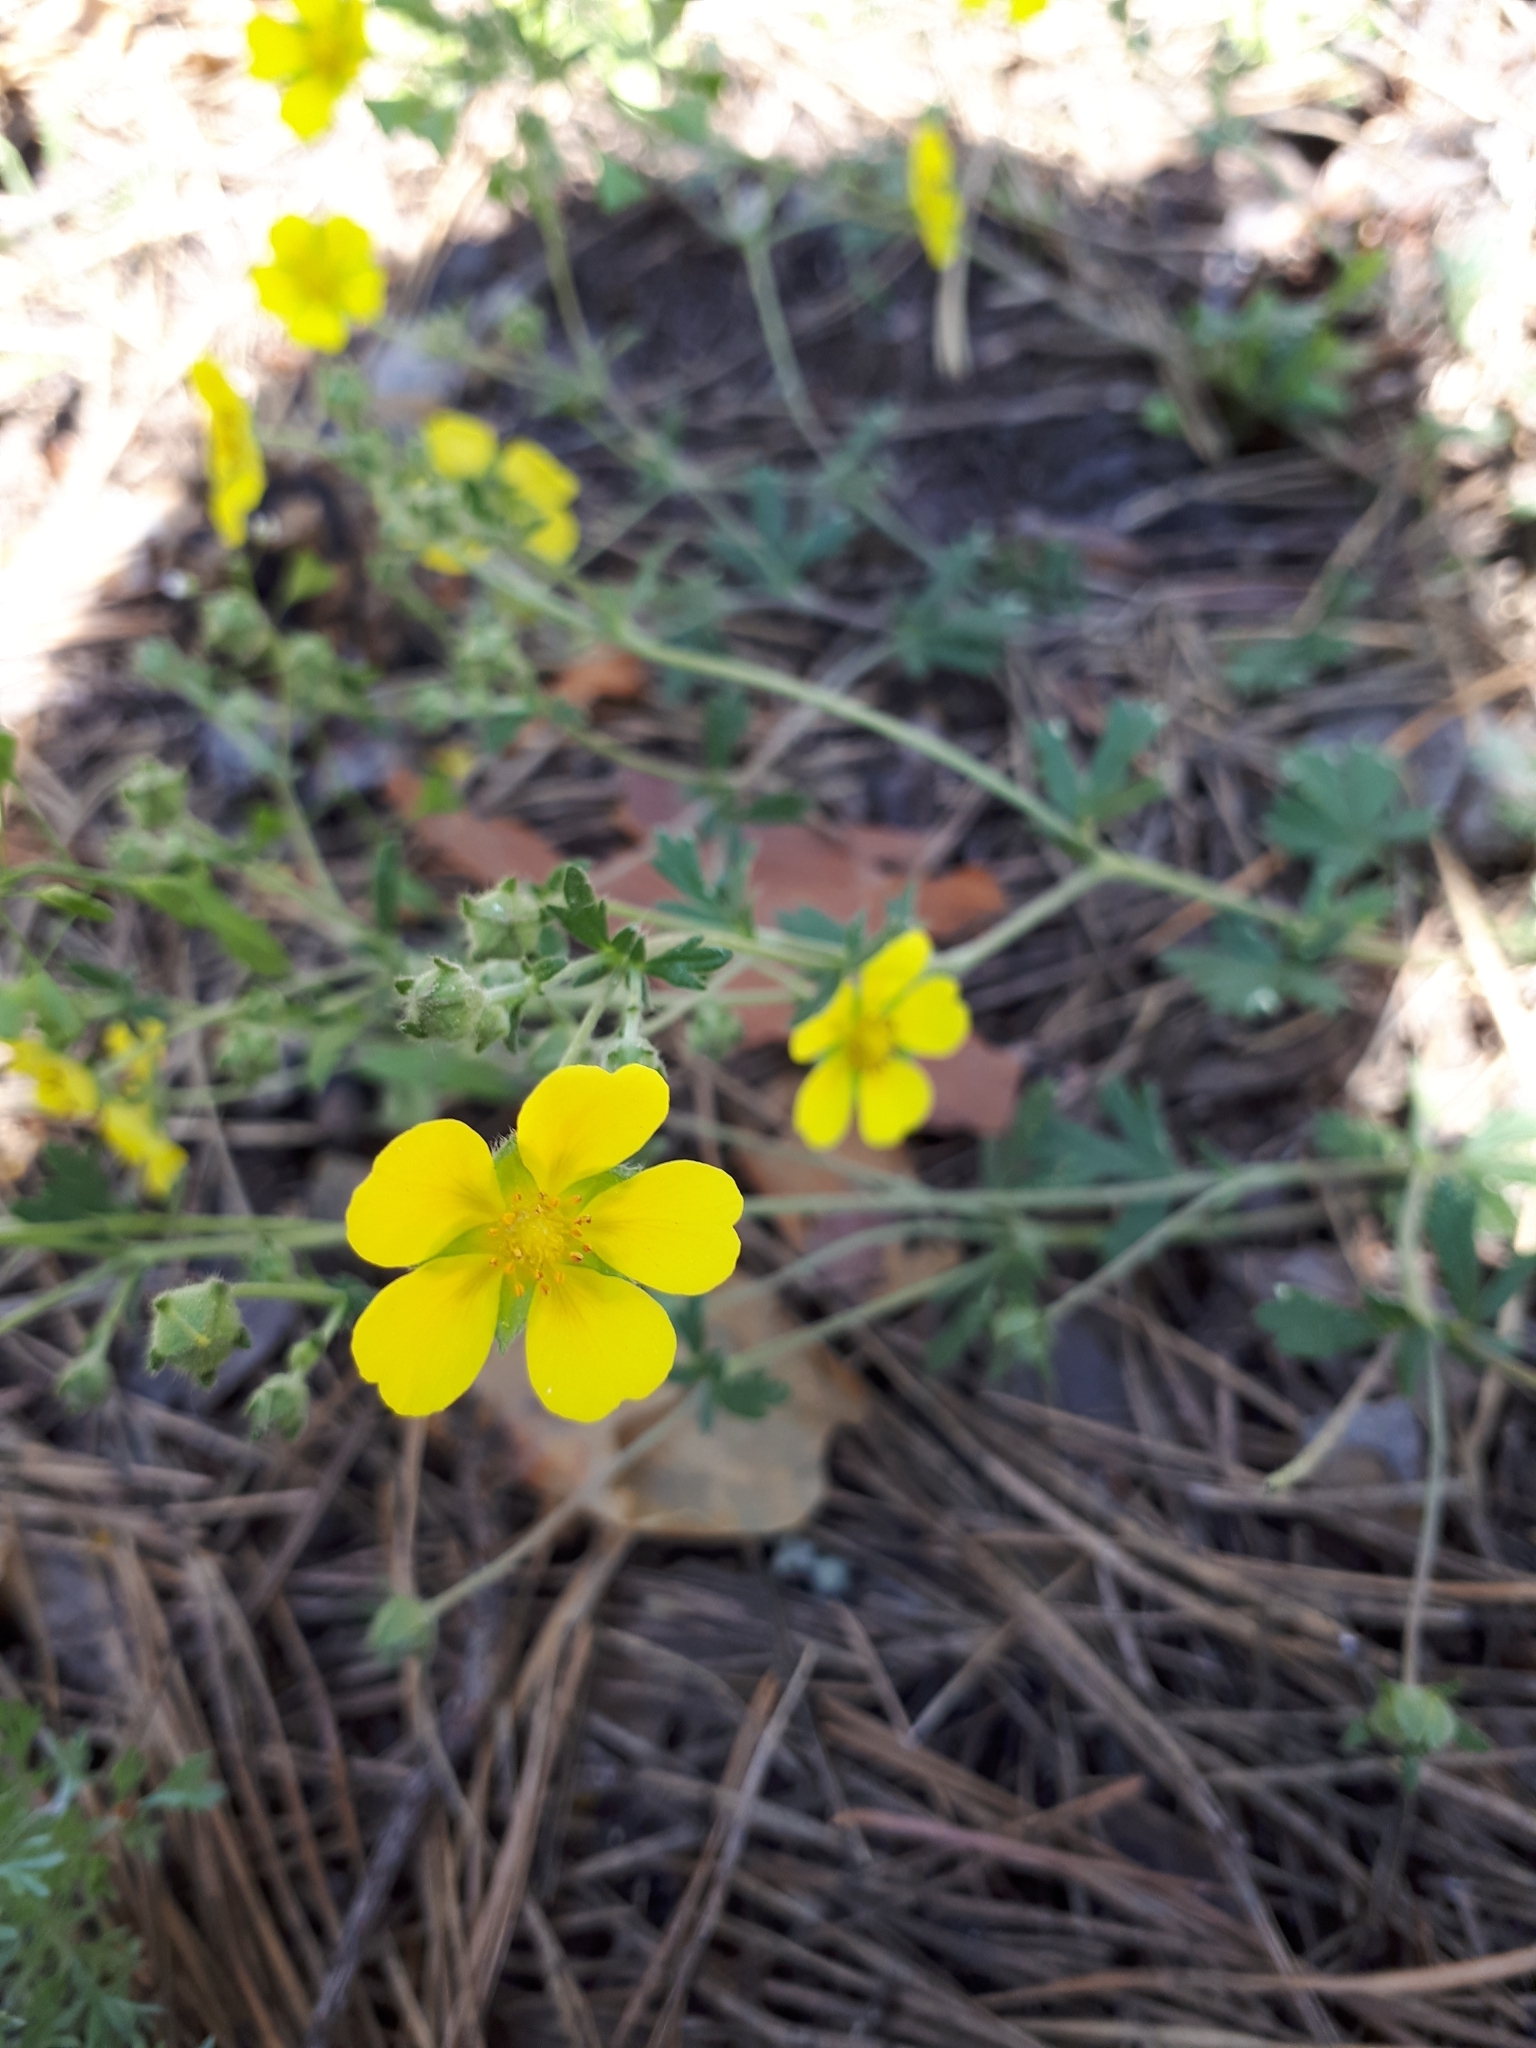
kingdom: Plantae
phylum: Tracheophyta
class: Magnoliopsida
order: Rosales
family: Rosaceae
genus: Potentilla
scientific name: Potentilla argentea
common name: Hoary cinquefoil
